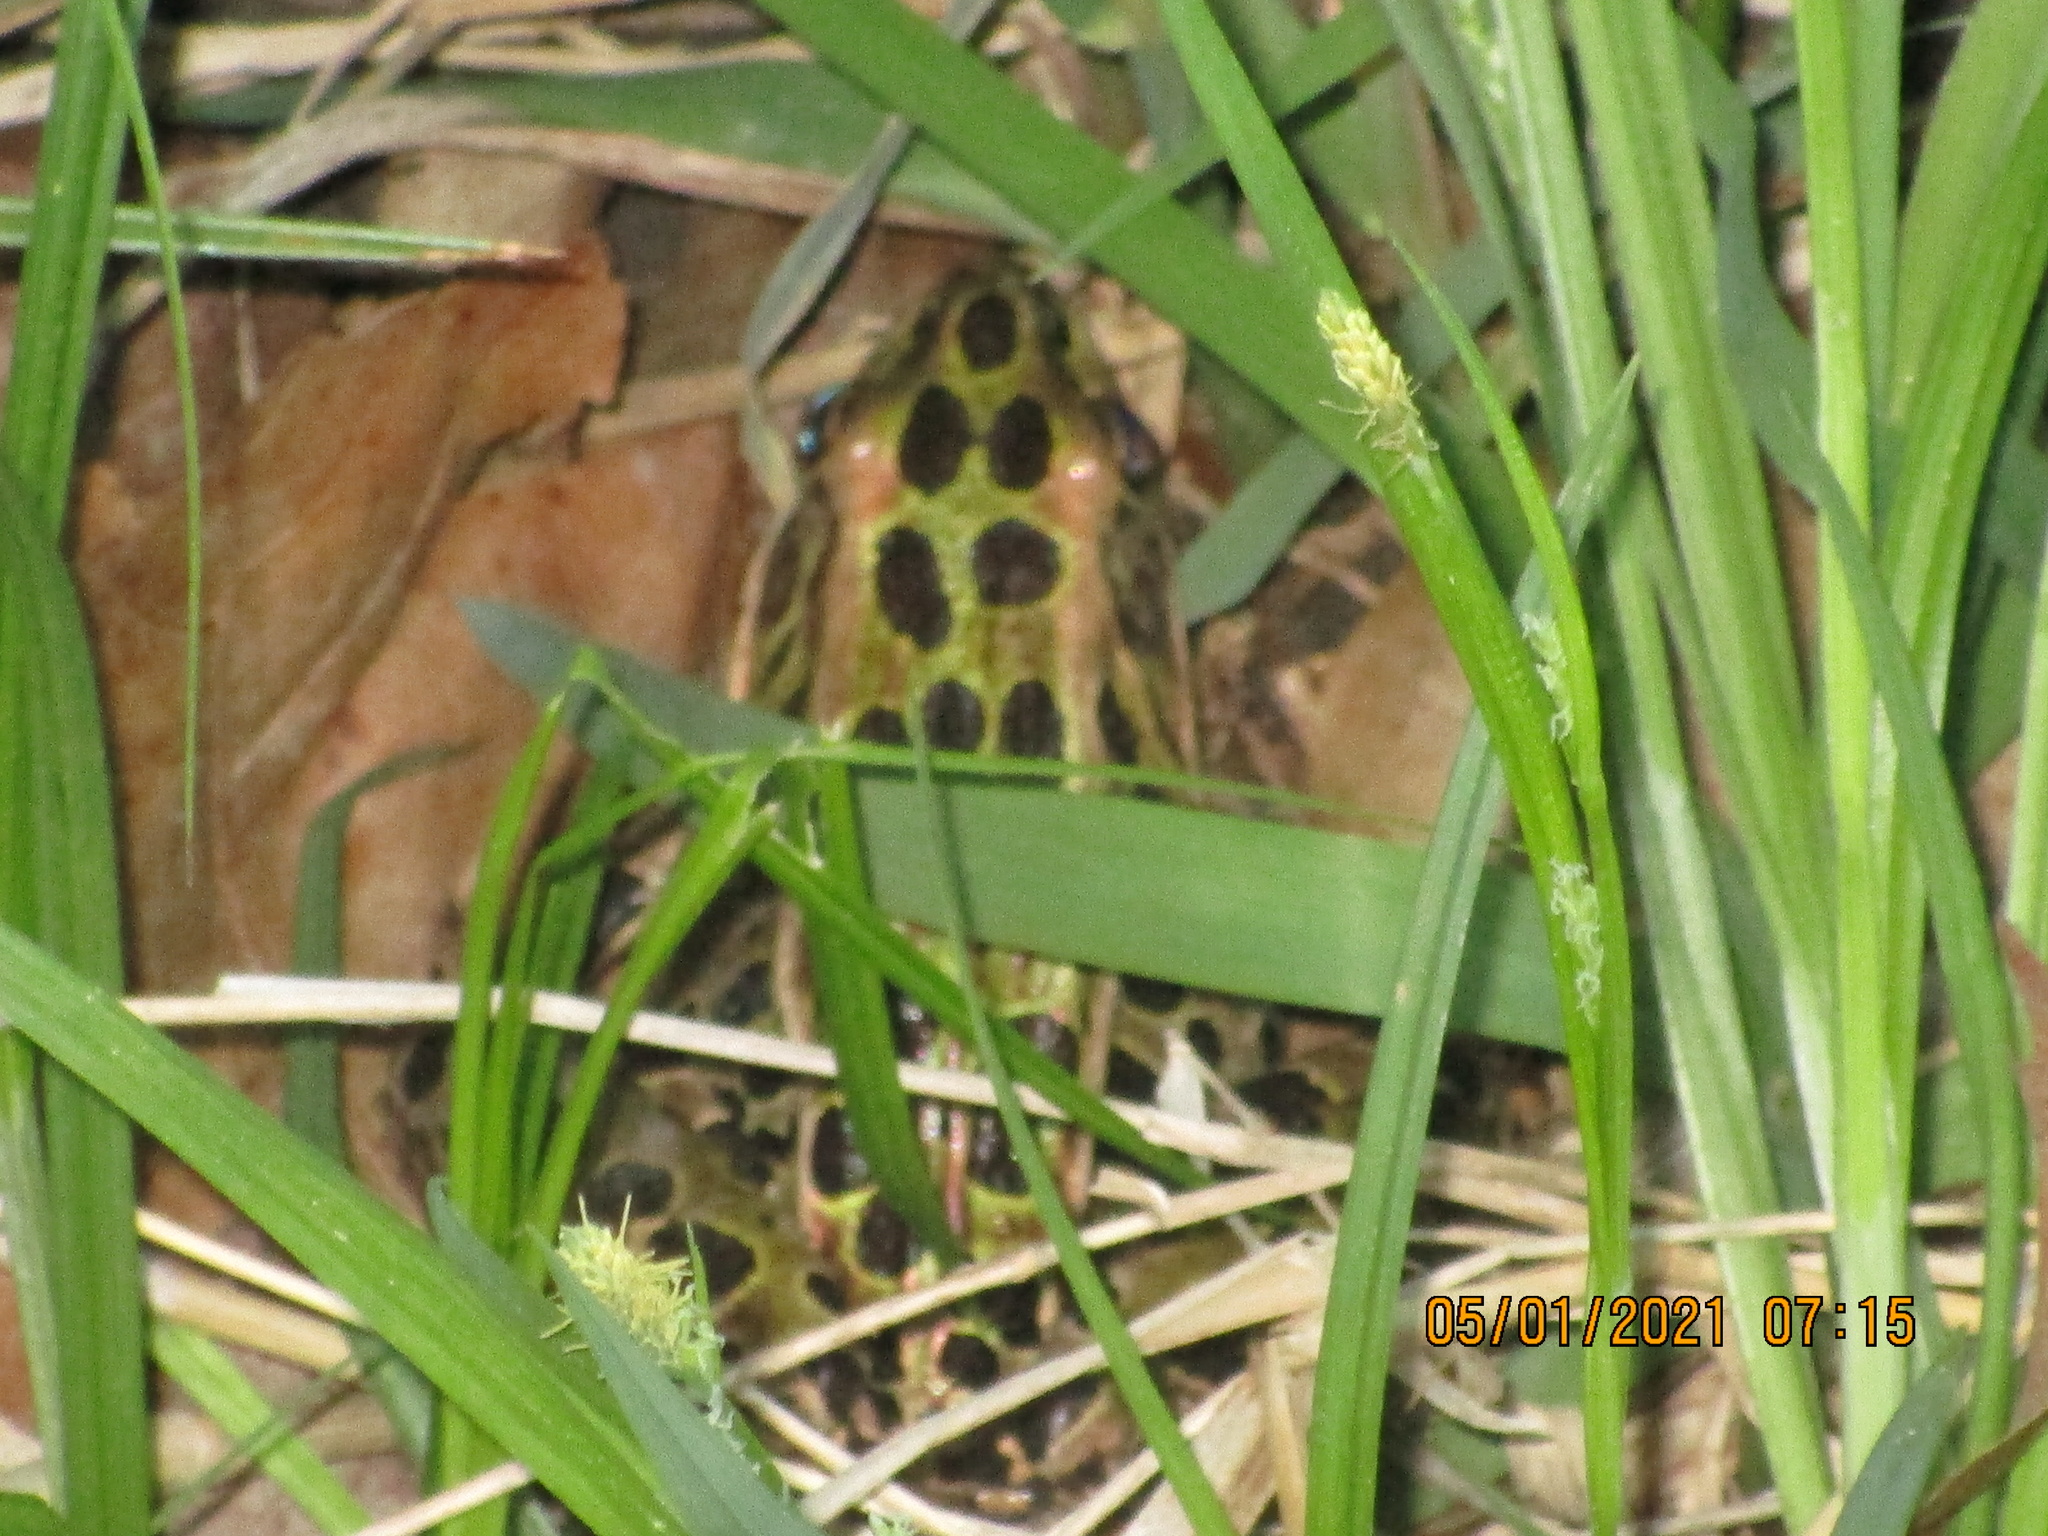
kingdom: Animalia
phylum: Chordata
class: Amphibia
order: Anura
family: Ranidae
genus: Lithobates
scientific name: Lithobates pipiens
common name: Northern leopard frog
